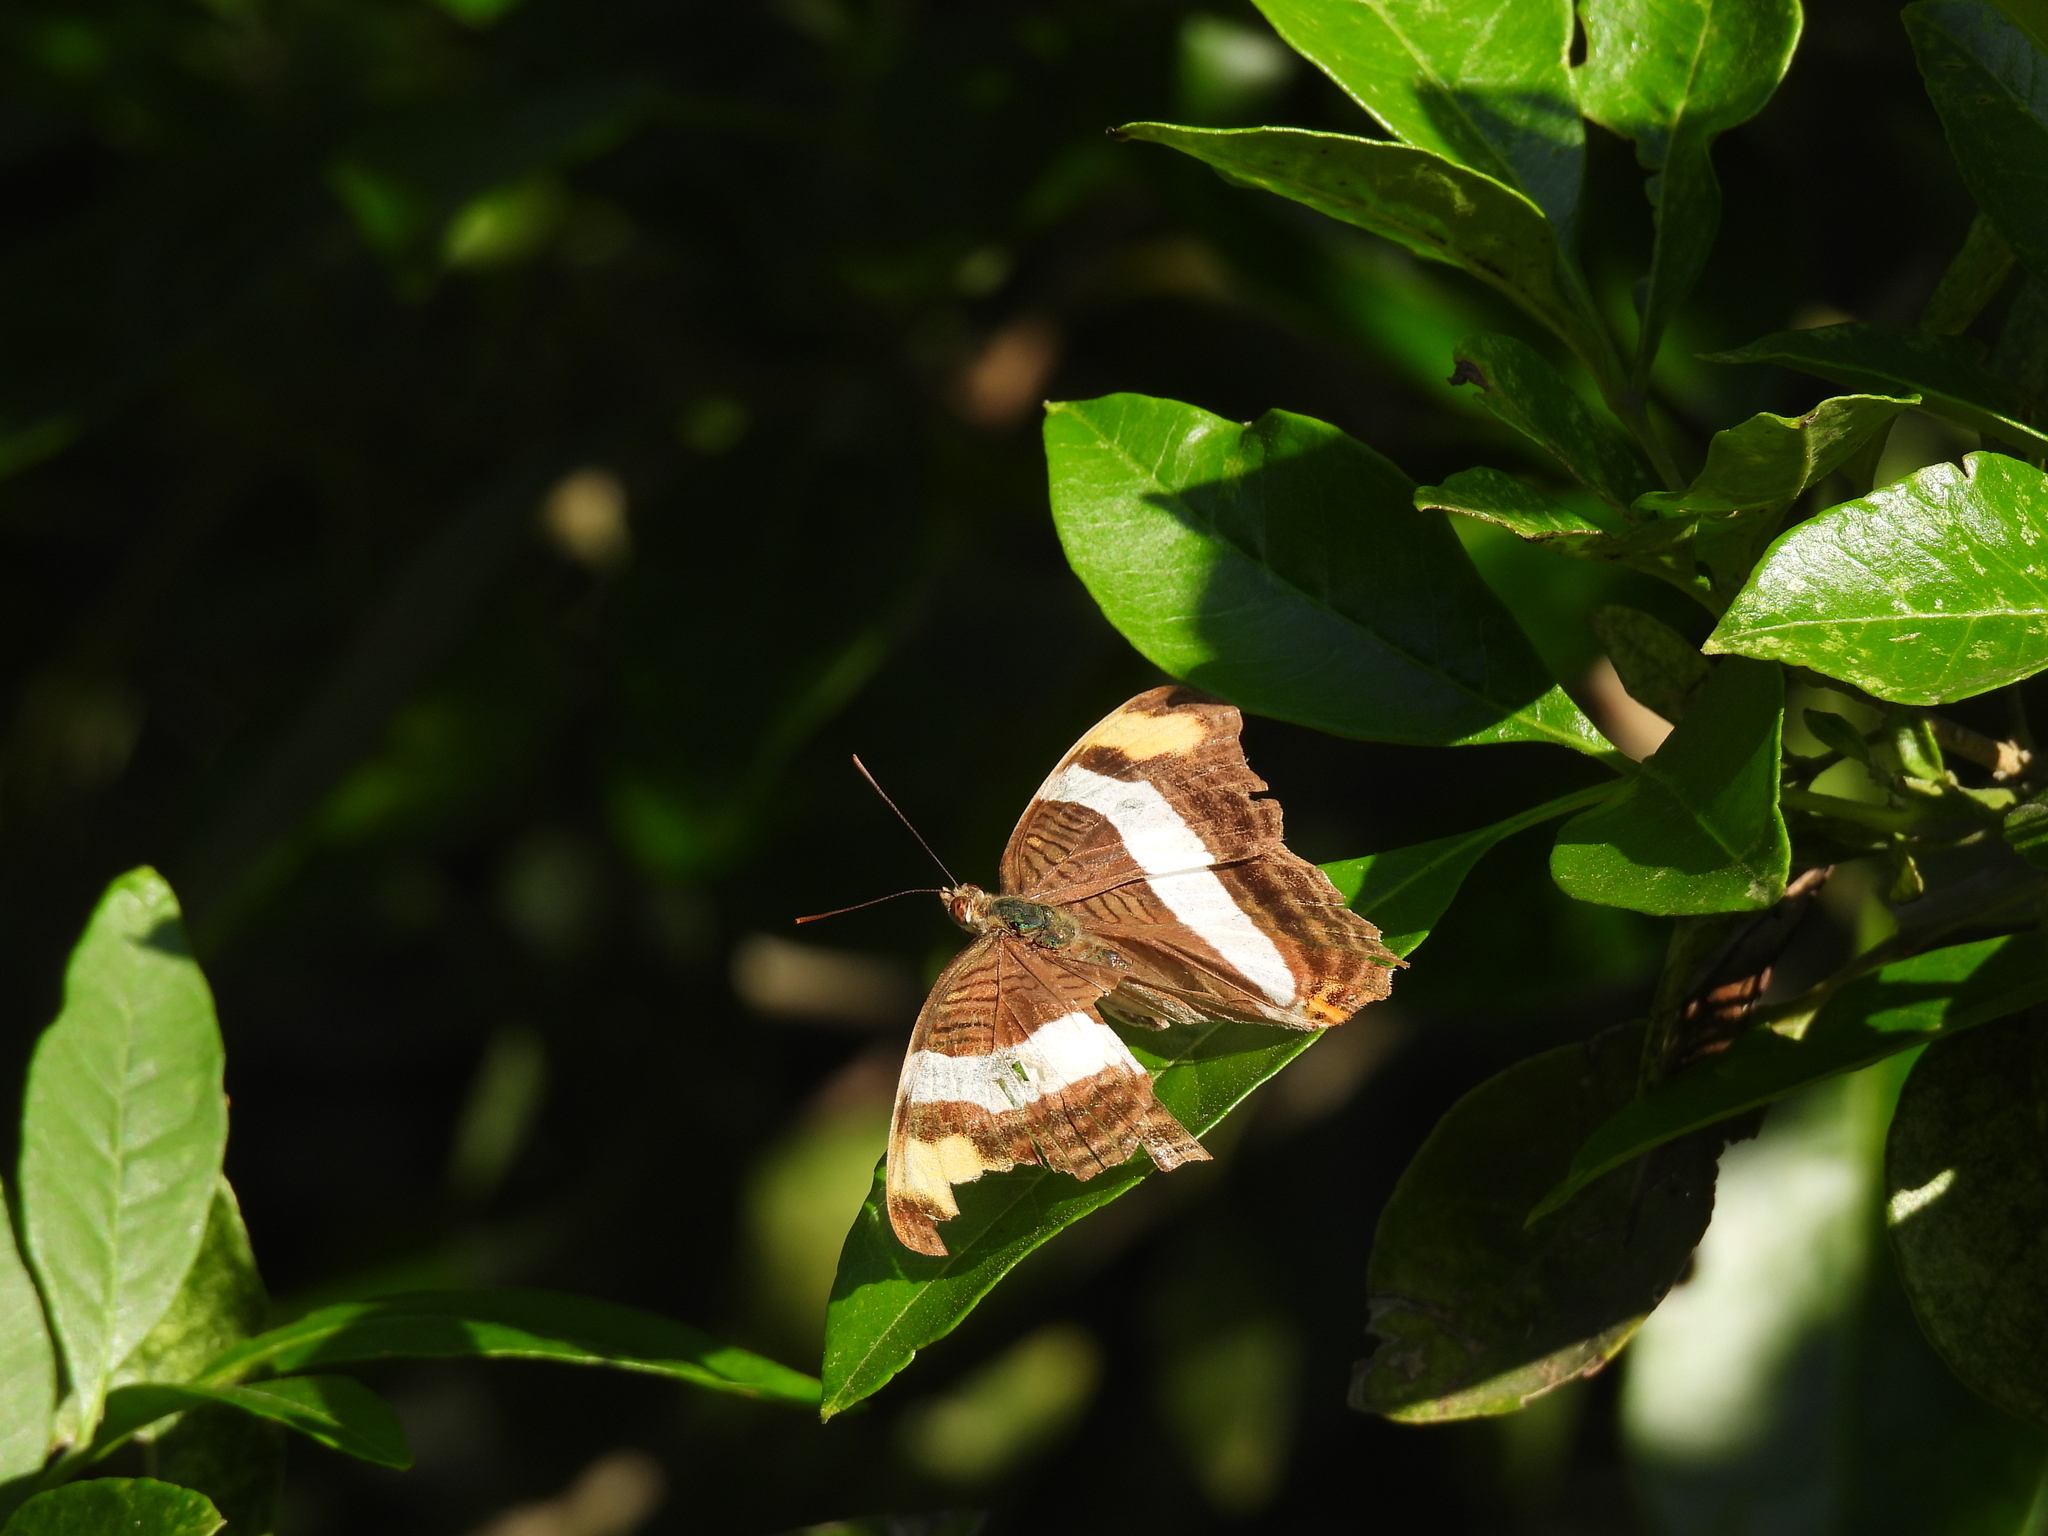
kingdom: Animalia
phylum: Arthropoda
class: Insecta
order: Lepidoptera
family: Nymphalidae
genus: Limenitis
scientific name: Limenitis fessonia
